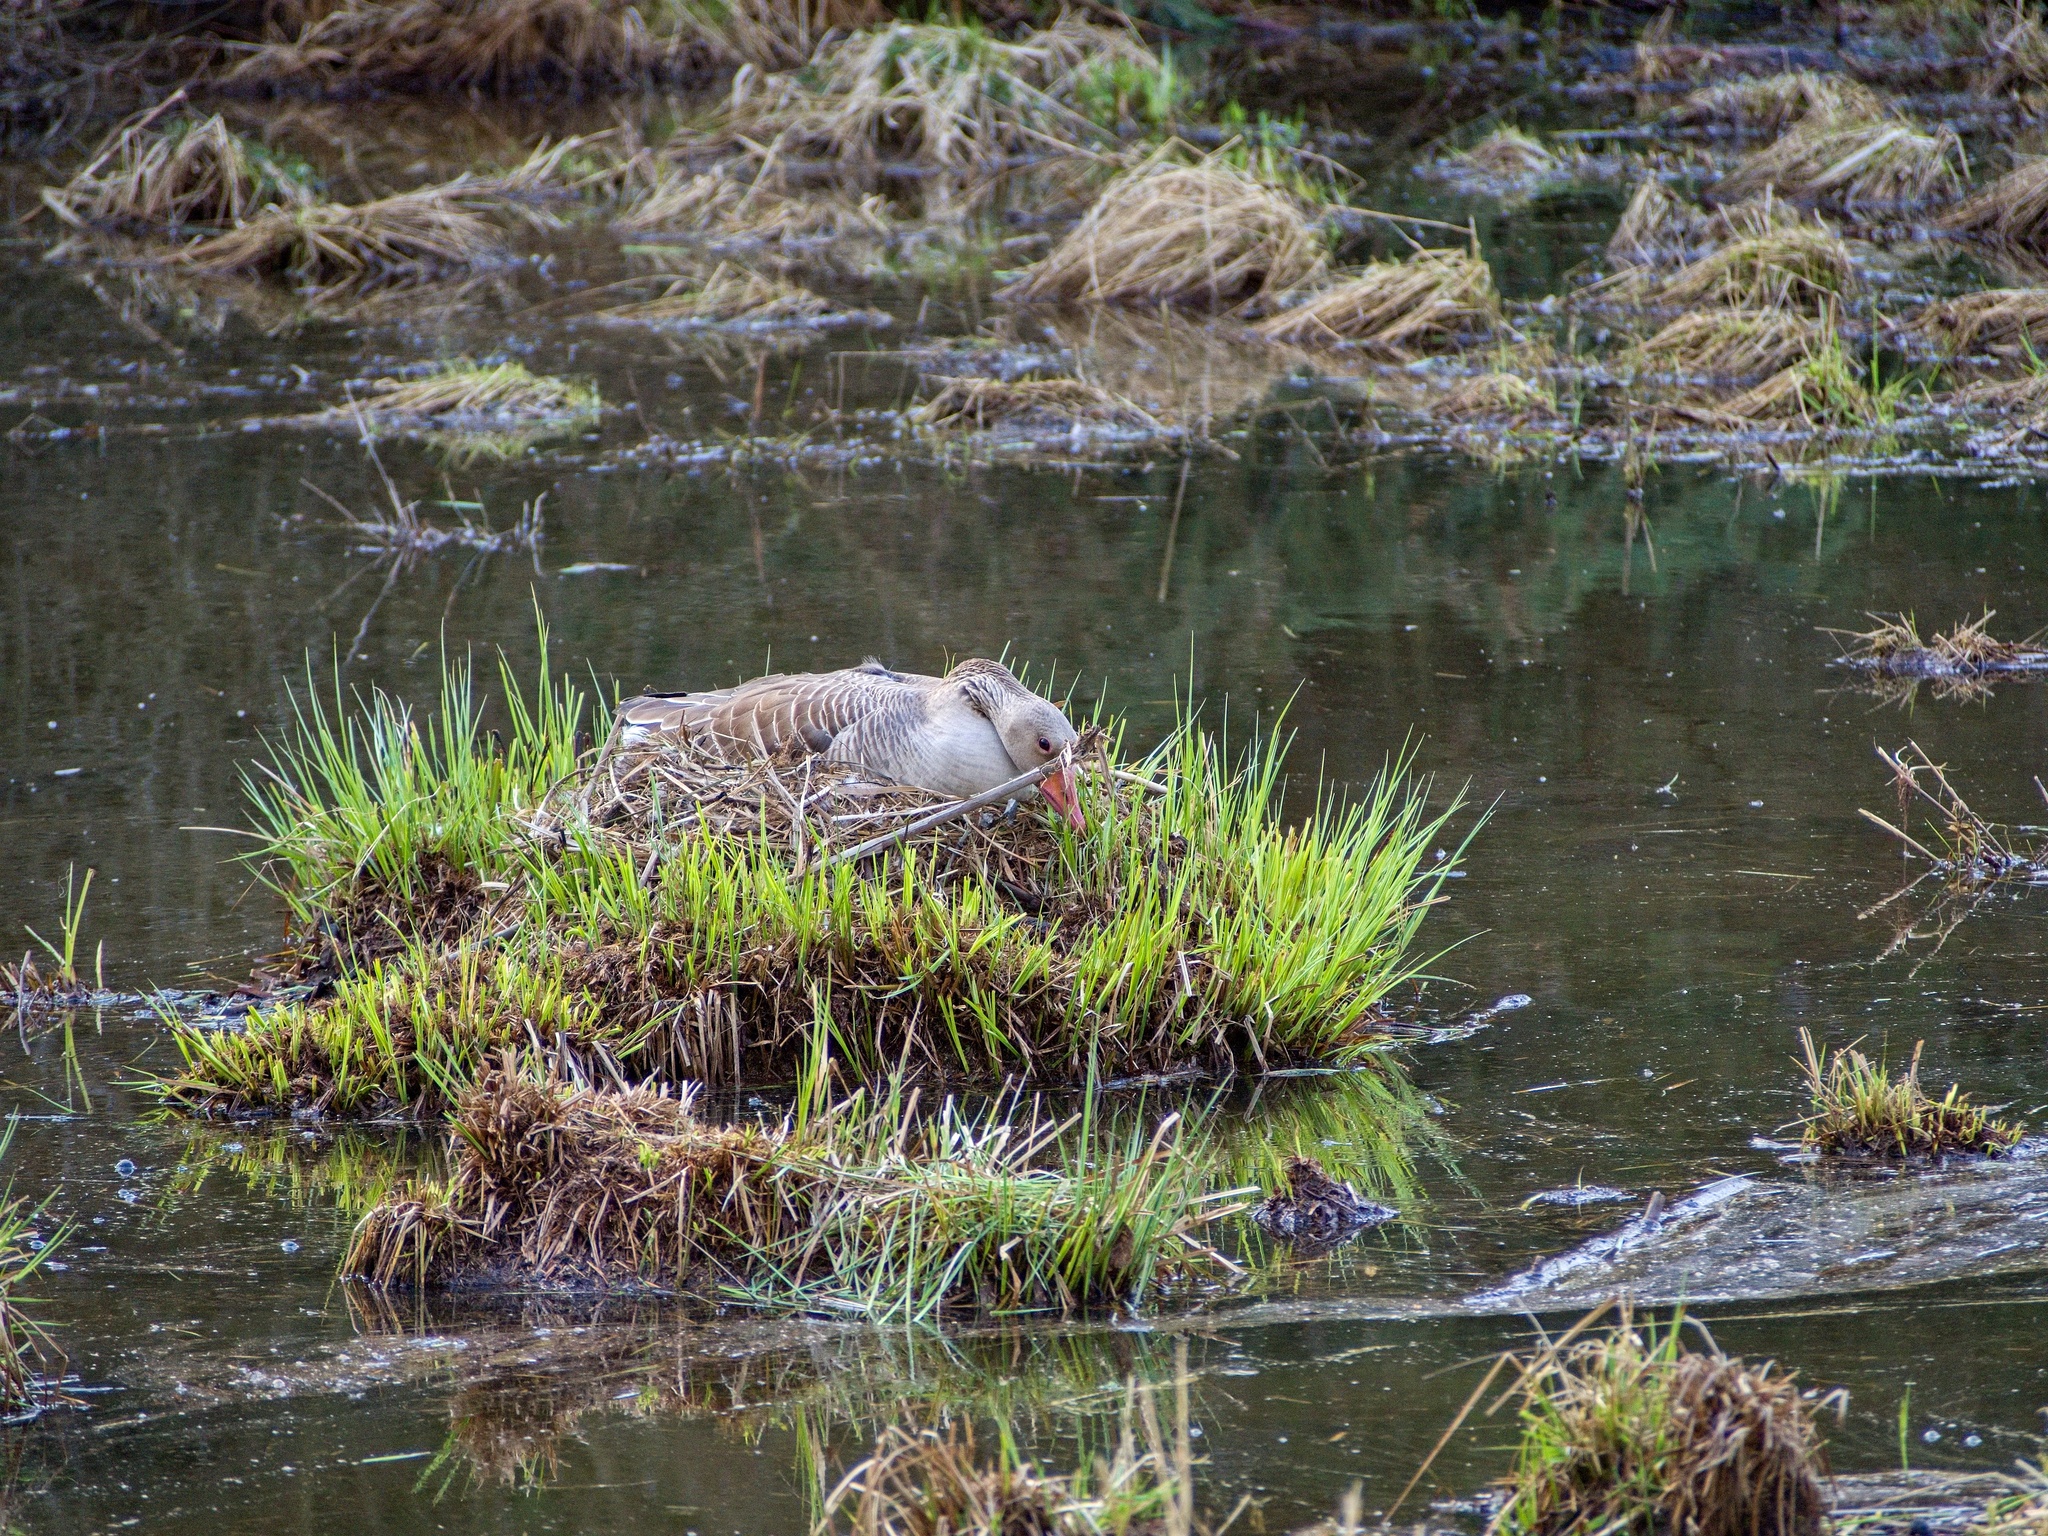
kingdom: Animalia
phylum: Chordata
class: Aves
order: Anseriformes
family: Anatidae
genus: Anser
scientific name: Anser anser
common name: Greylag goose
